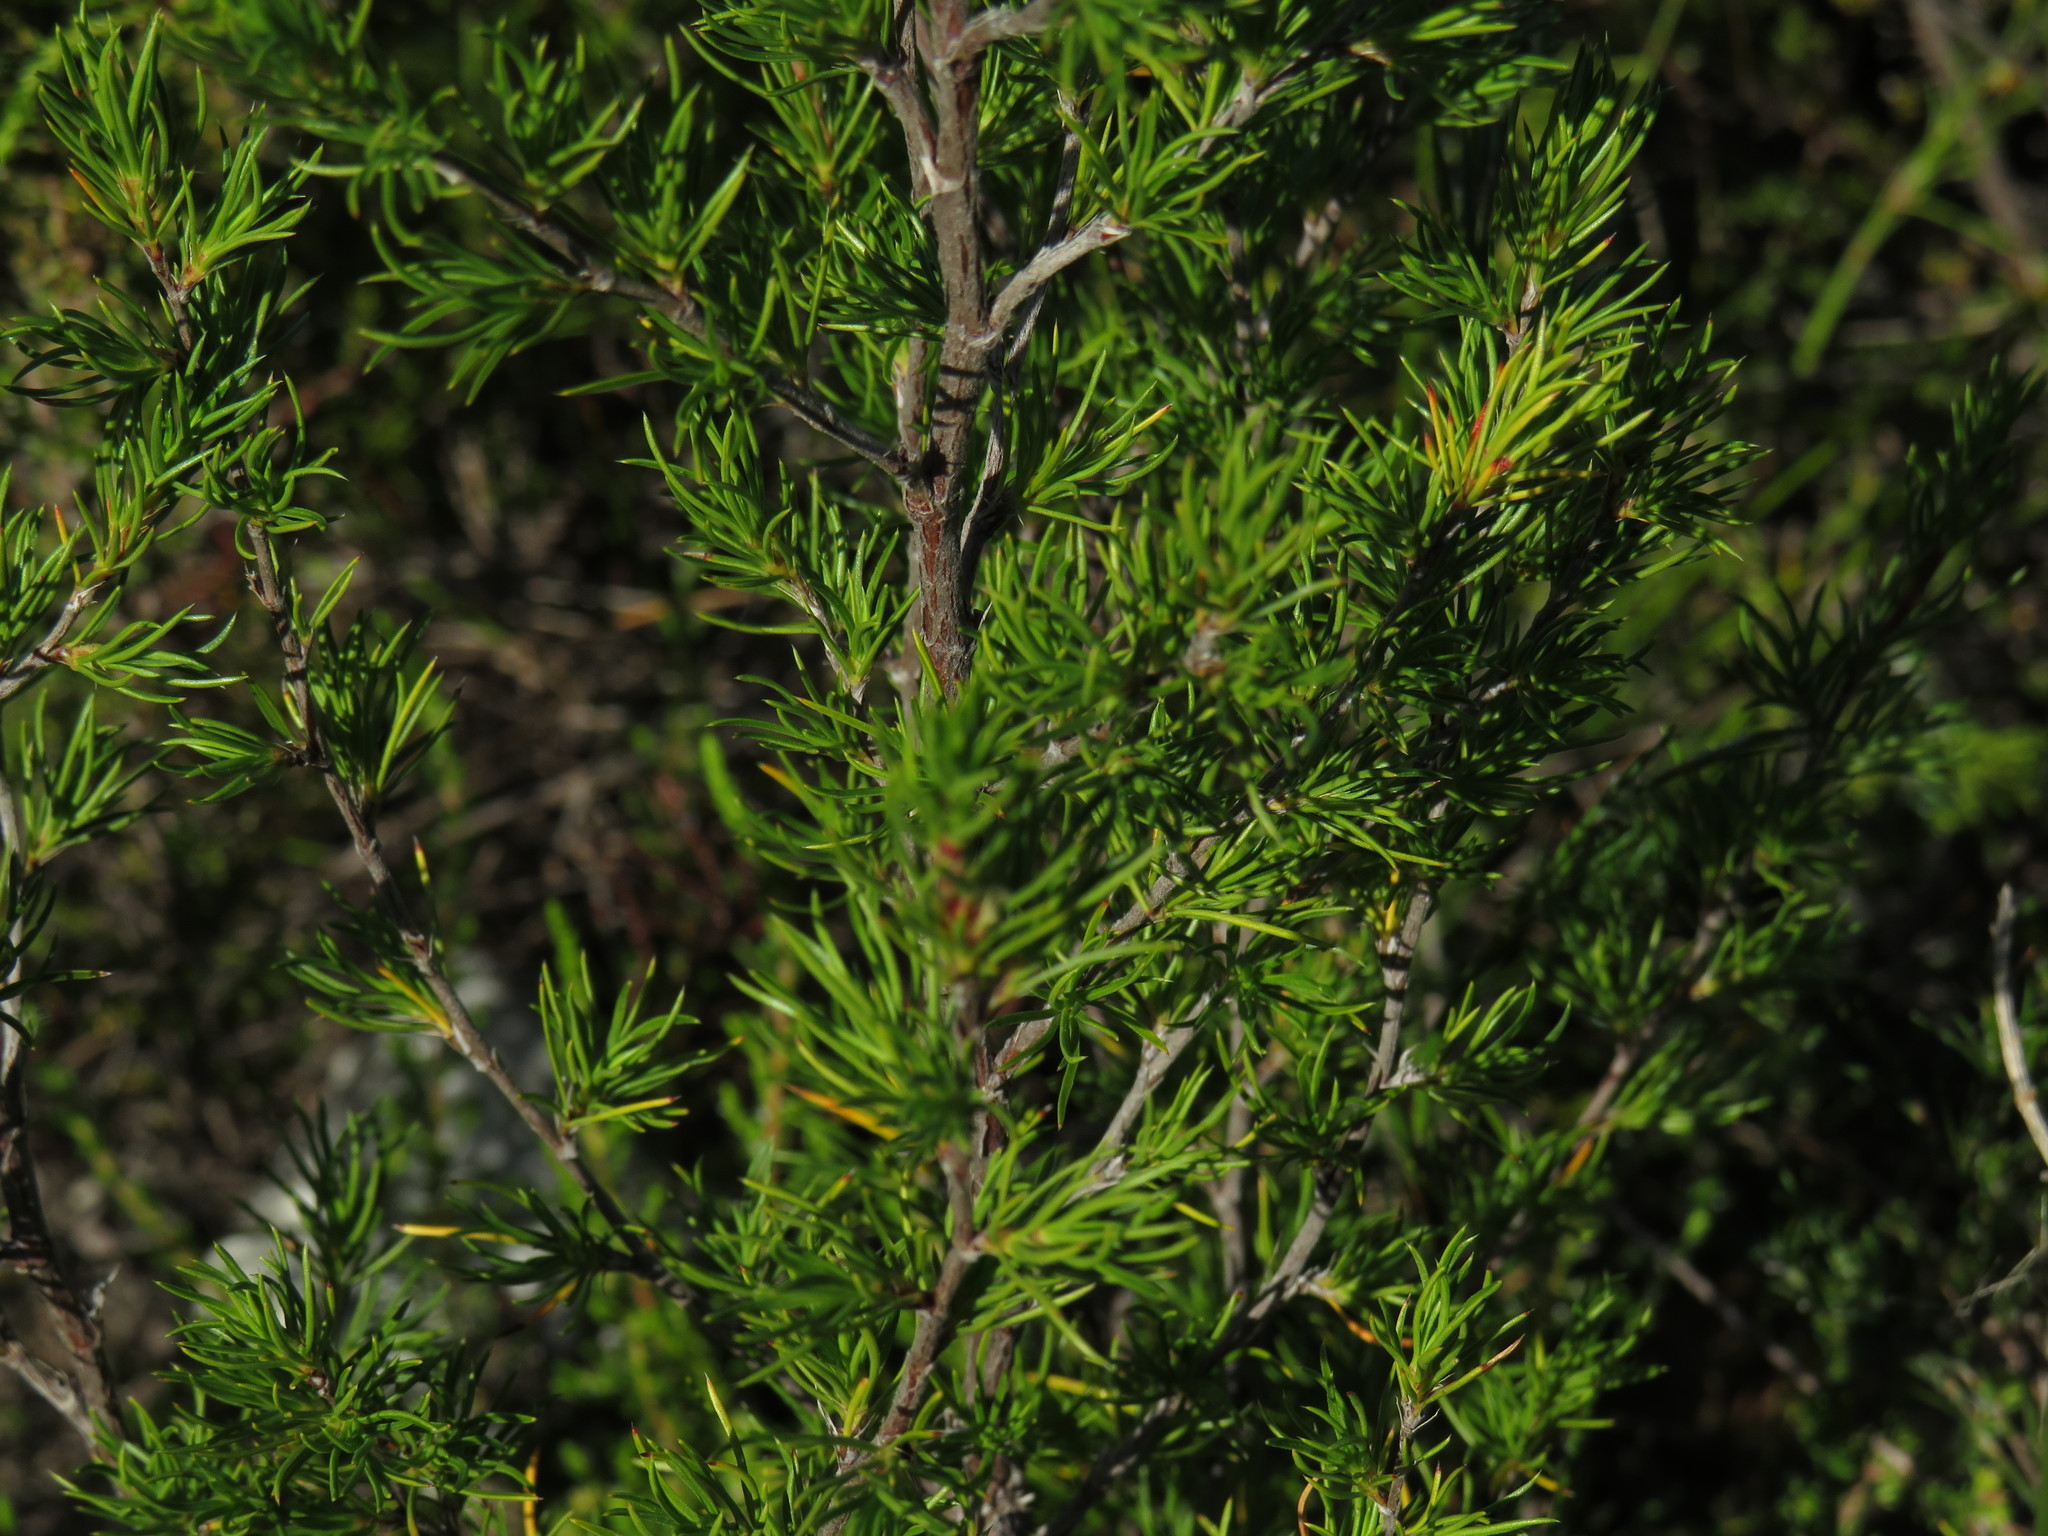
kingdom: Plantae
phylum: Tracheophyta
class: Magnoliopsida
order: Rosales
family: Rosaceae
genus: Cliffortia
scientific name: Cliffortia atrata
